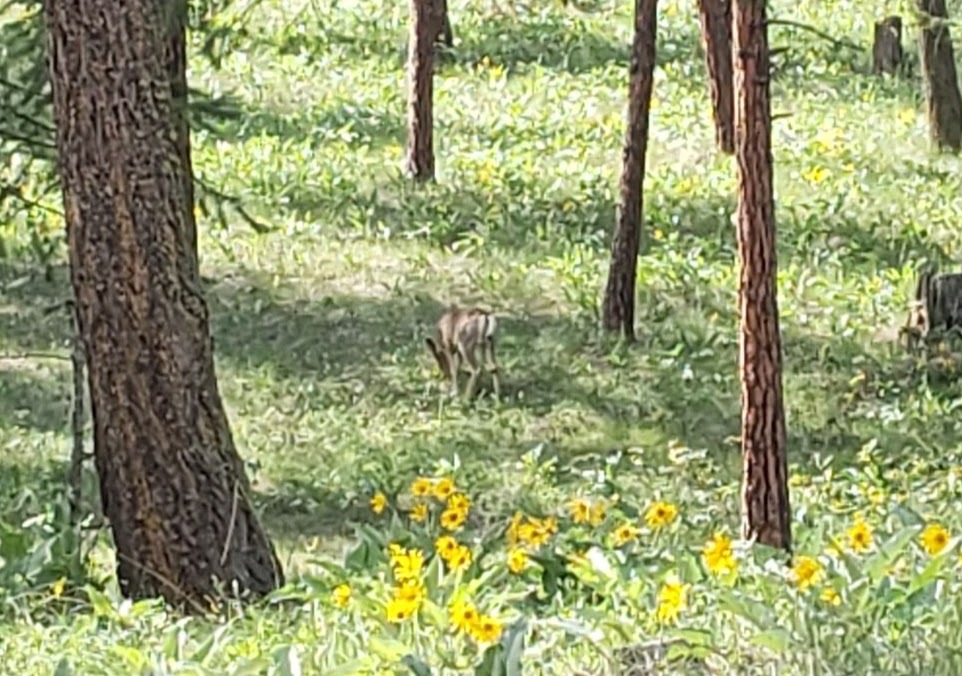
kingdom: Animalia
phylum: Chordata
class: Mammalia
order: Artiodactyla
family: Cervidae
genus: Odocoileus
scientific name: Odocoileus hemionus
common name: Mule deer
